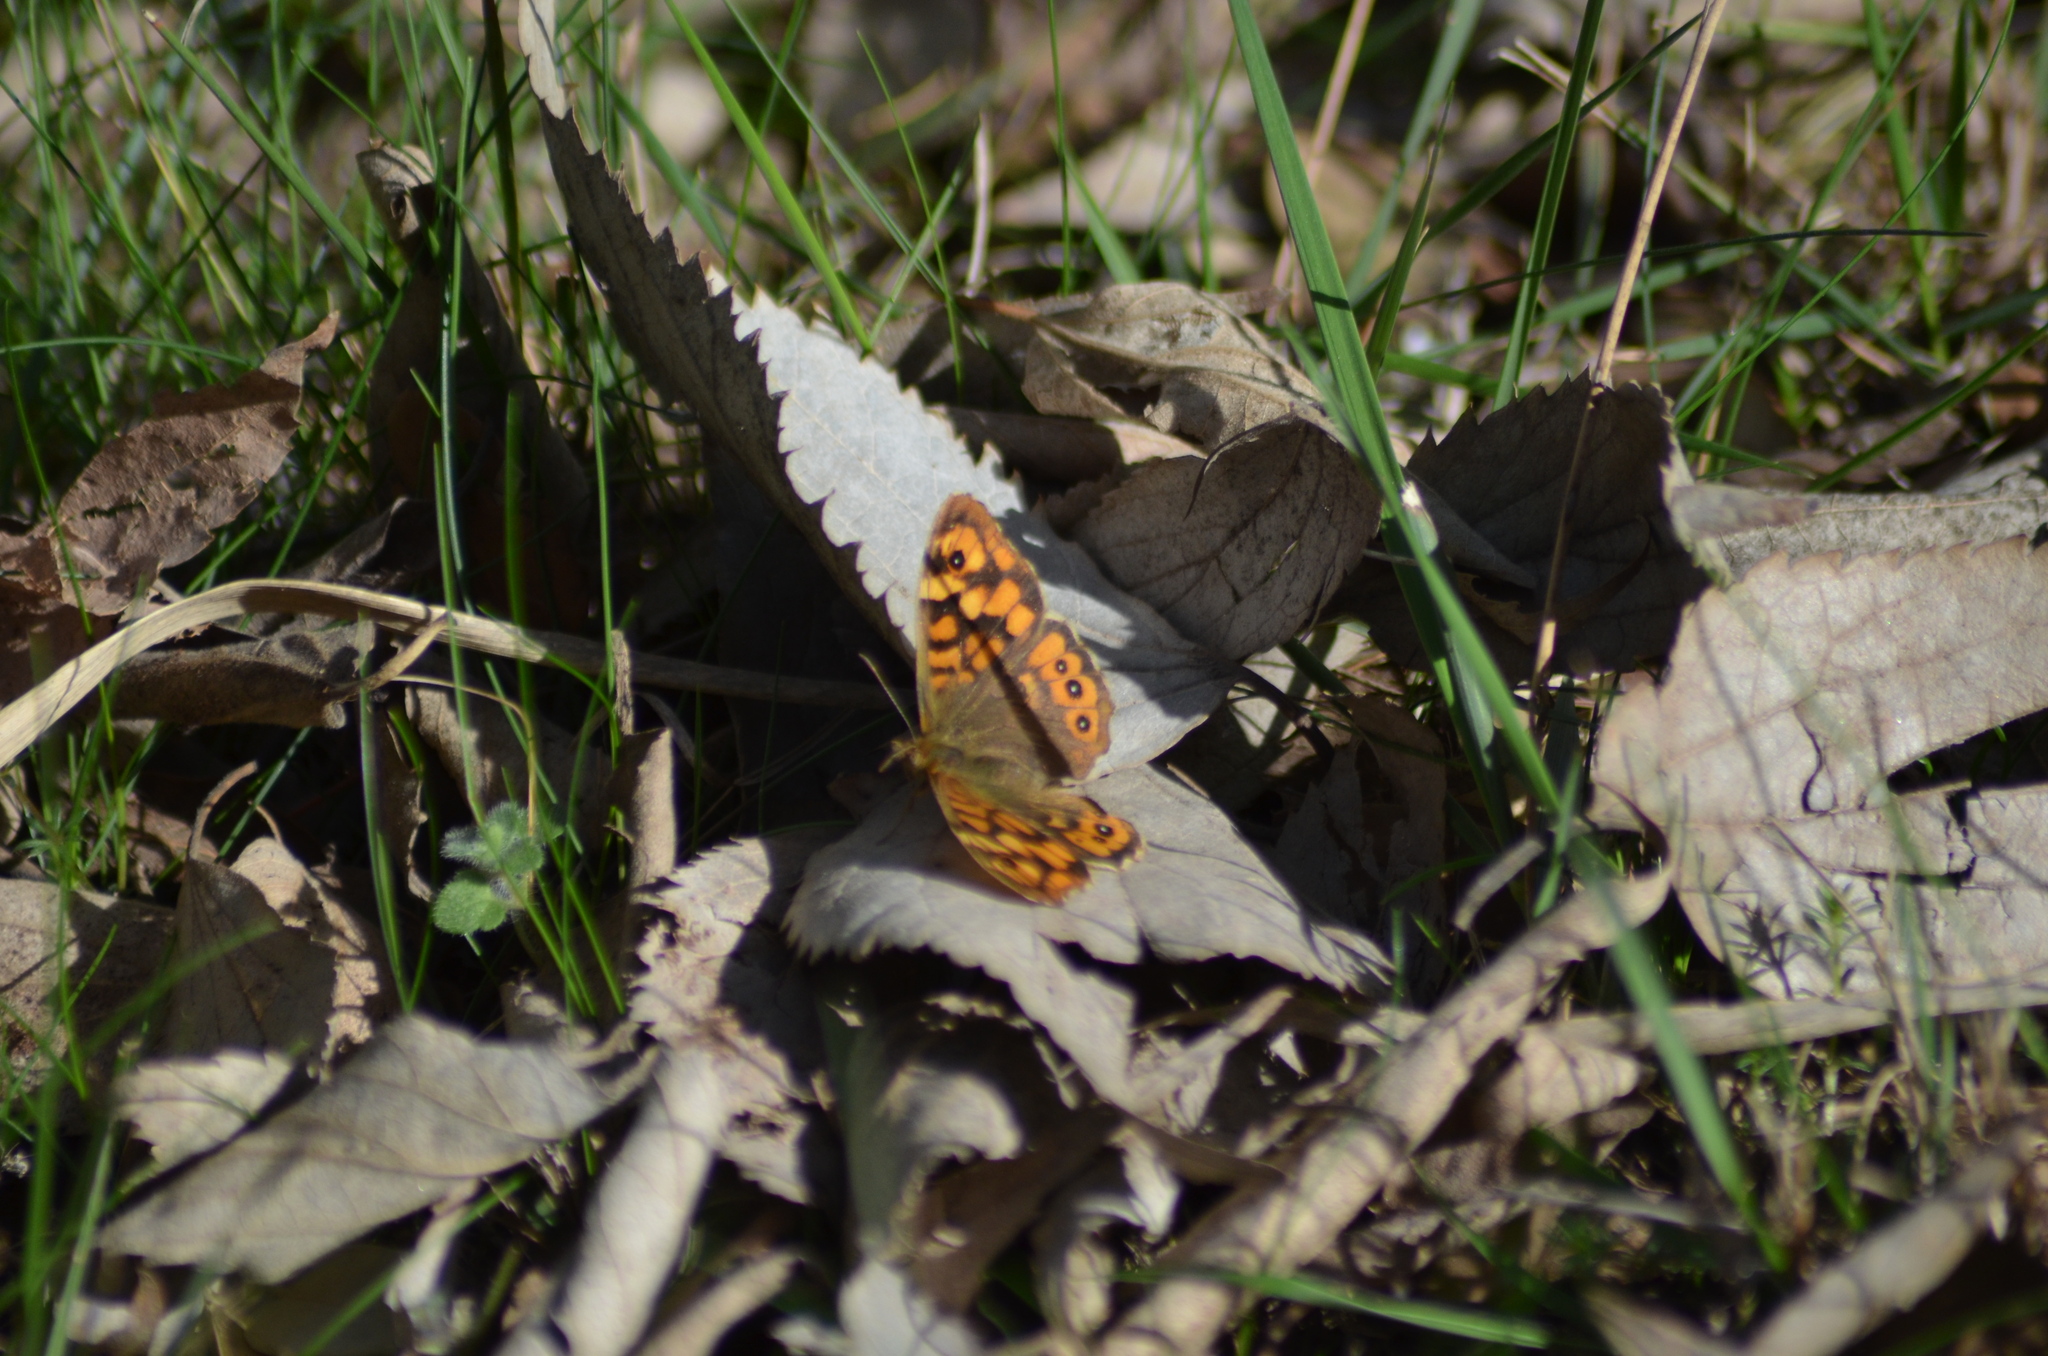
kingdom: Animalia
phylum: Arthropoda
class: Insecta
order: Lepidoptera
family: Nymphalidae
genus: Pararge
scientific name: Pararge aegeria
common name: Speckled wood
